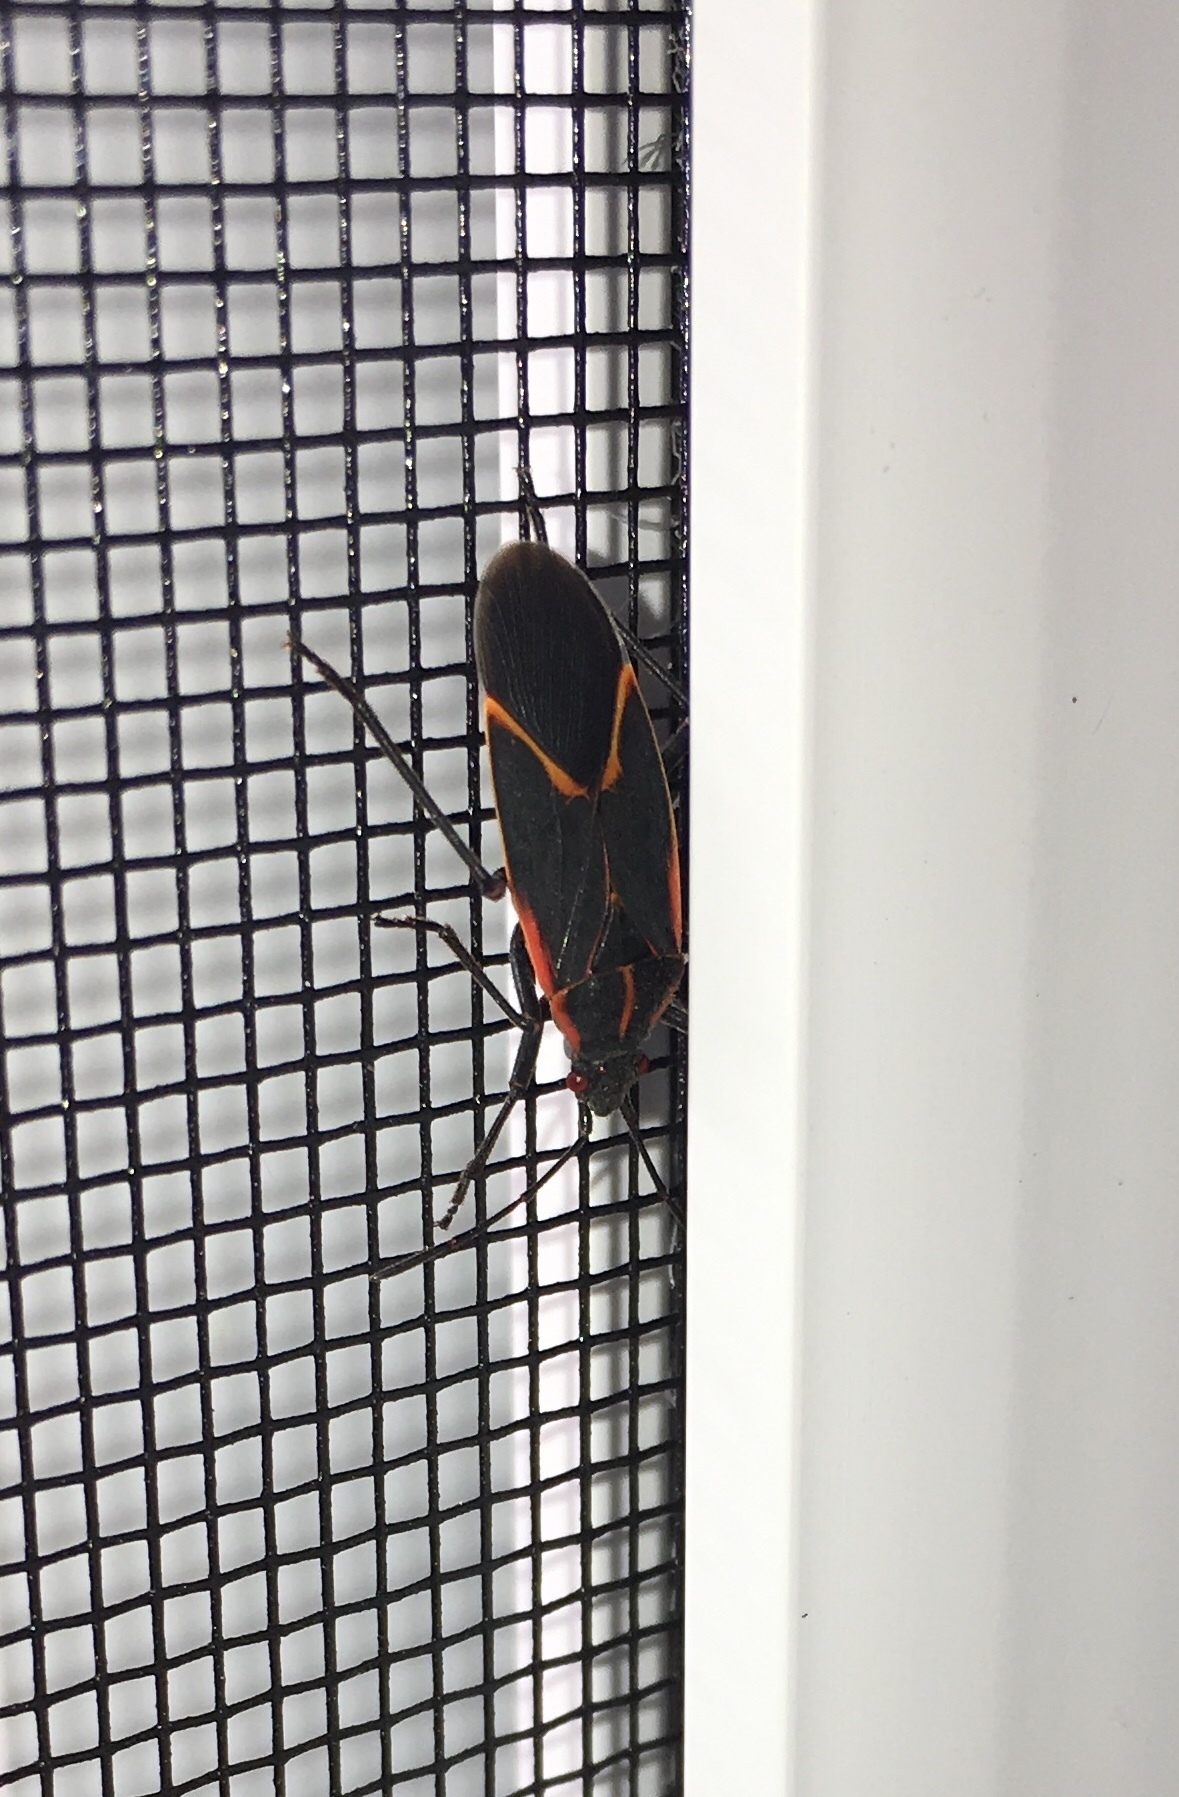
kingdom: Animalia
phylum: Arthropoda
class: Insecta
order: Hemiptera
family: Rhopalidae
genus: Boisea
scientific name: Boisea trivittata
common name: Boxelder bug
